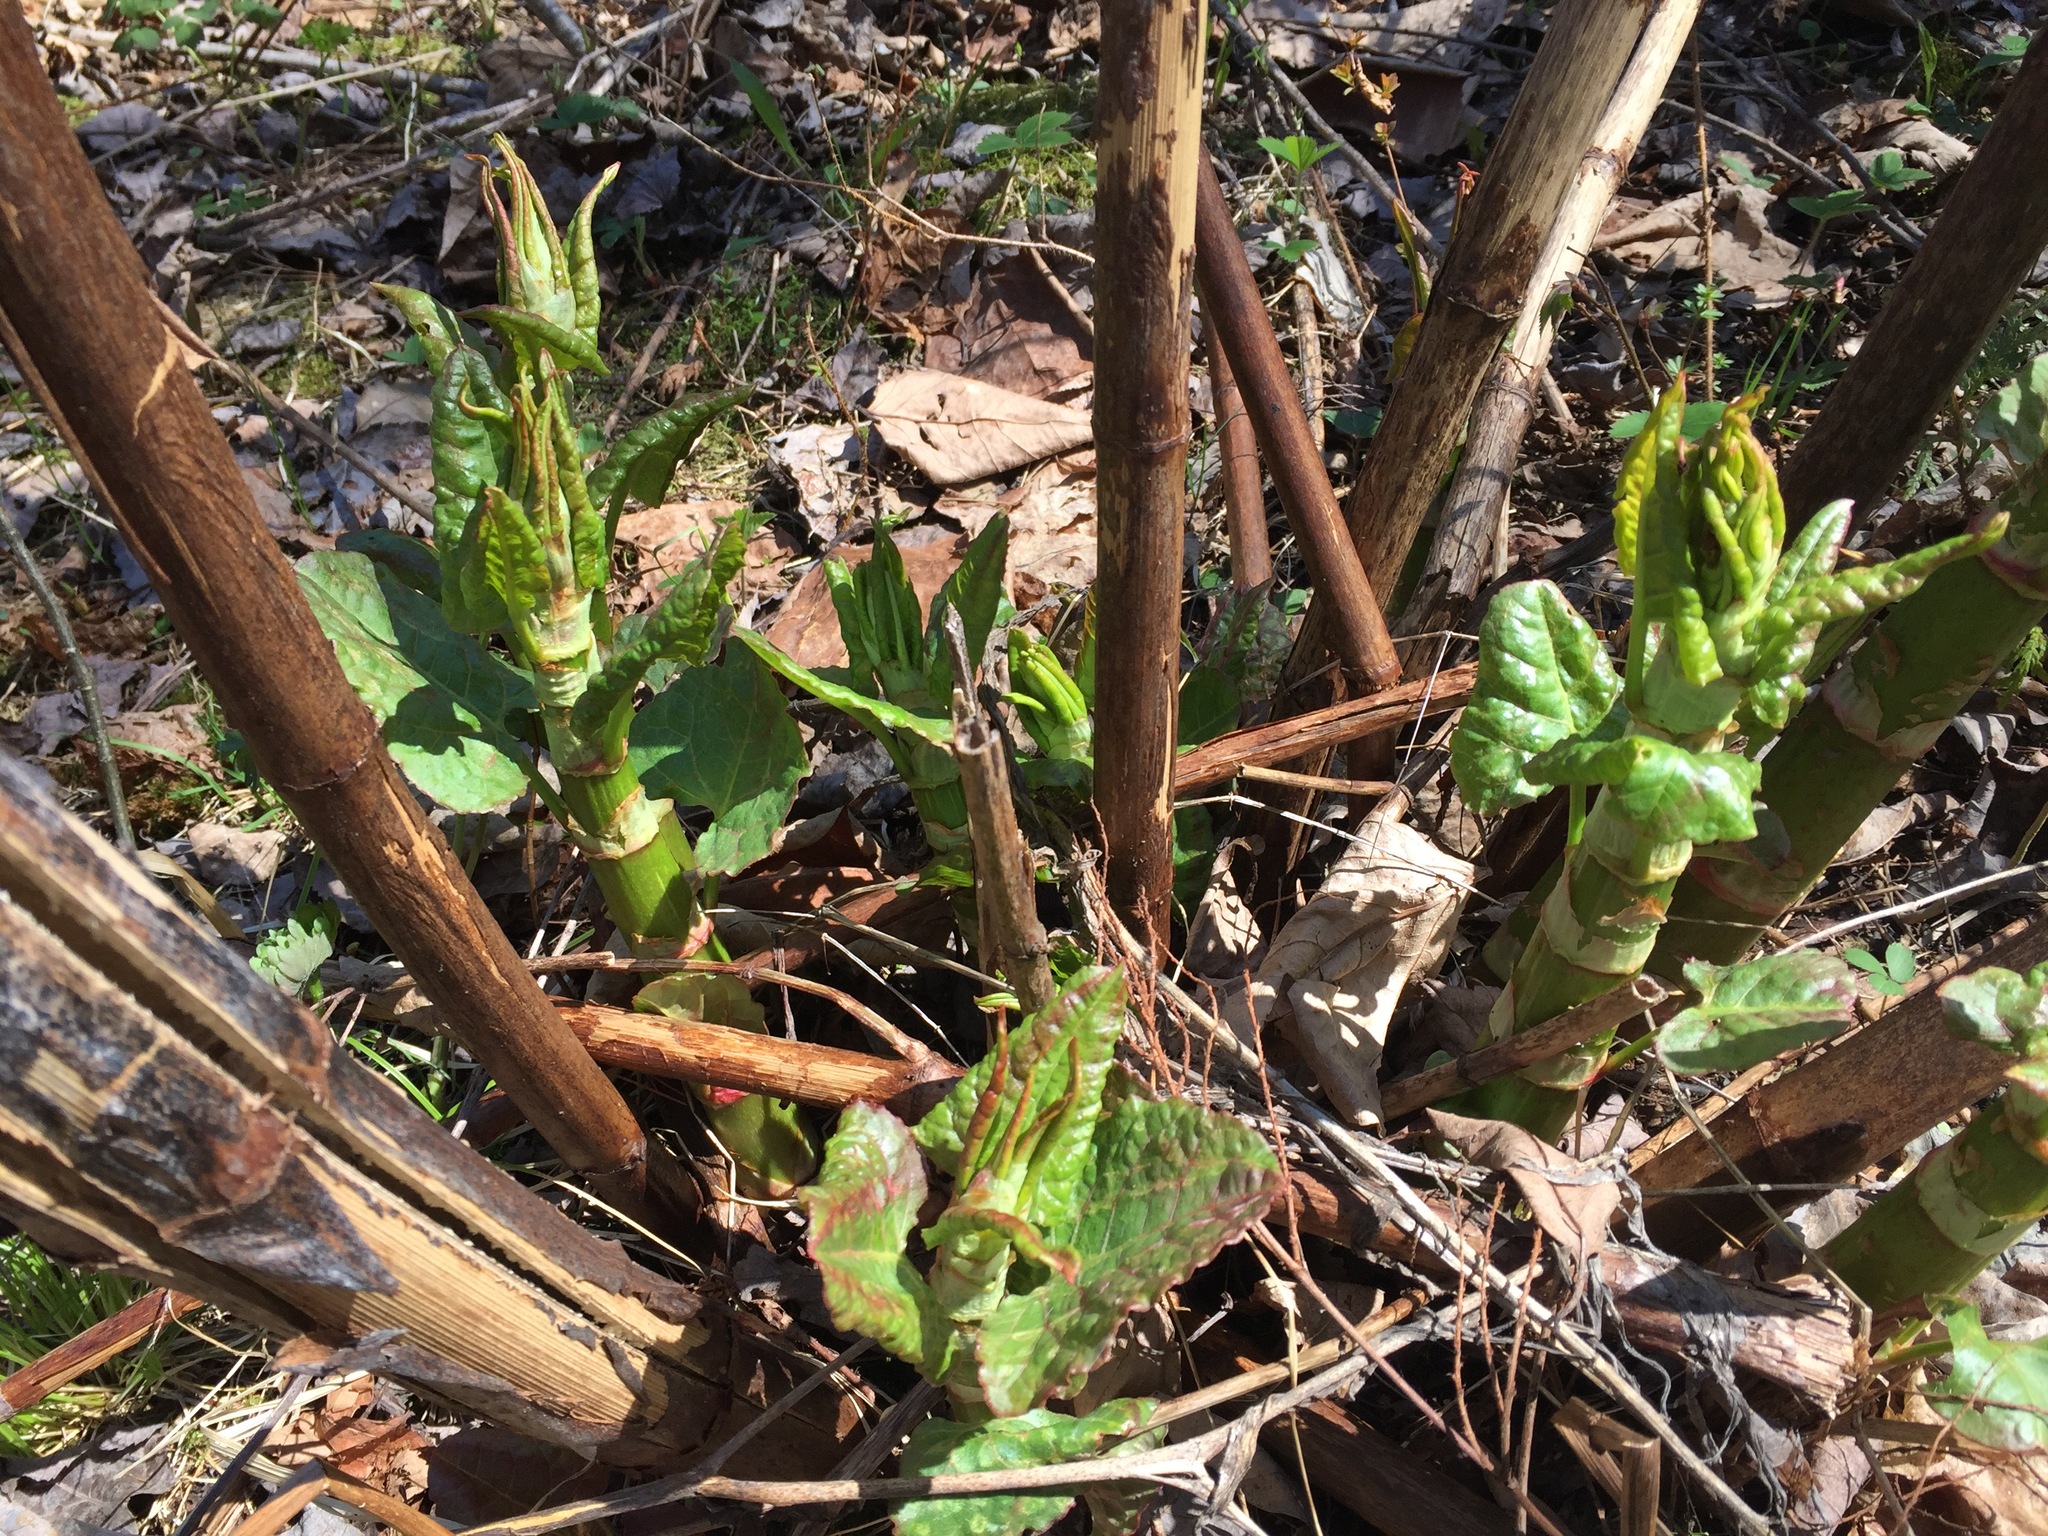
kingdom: Plantae
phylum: Tracheophyta
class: Magnoliopsida
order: Caryophyllales
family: Polygonaceae
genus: Reynoutria
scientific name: Reynoutria japonica
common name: Japanese knotweed
